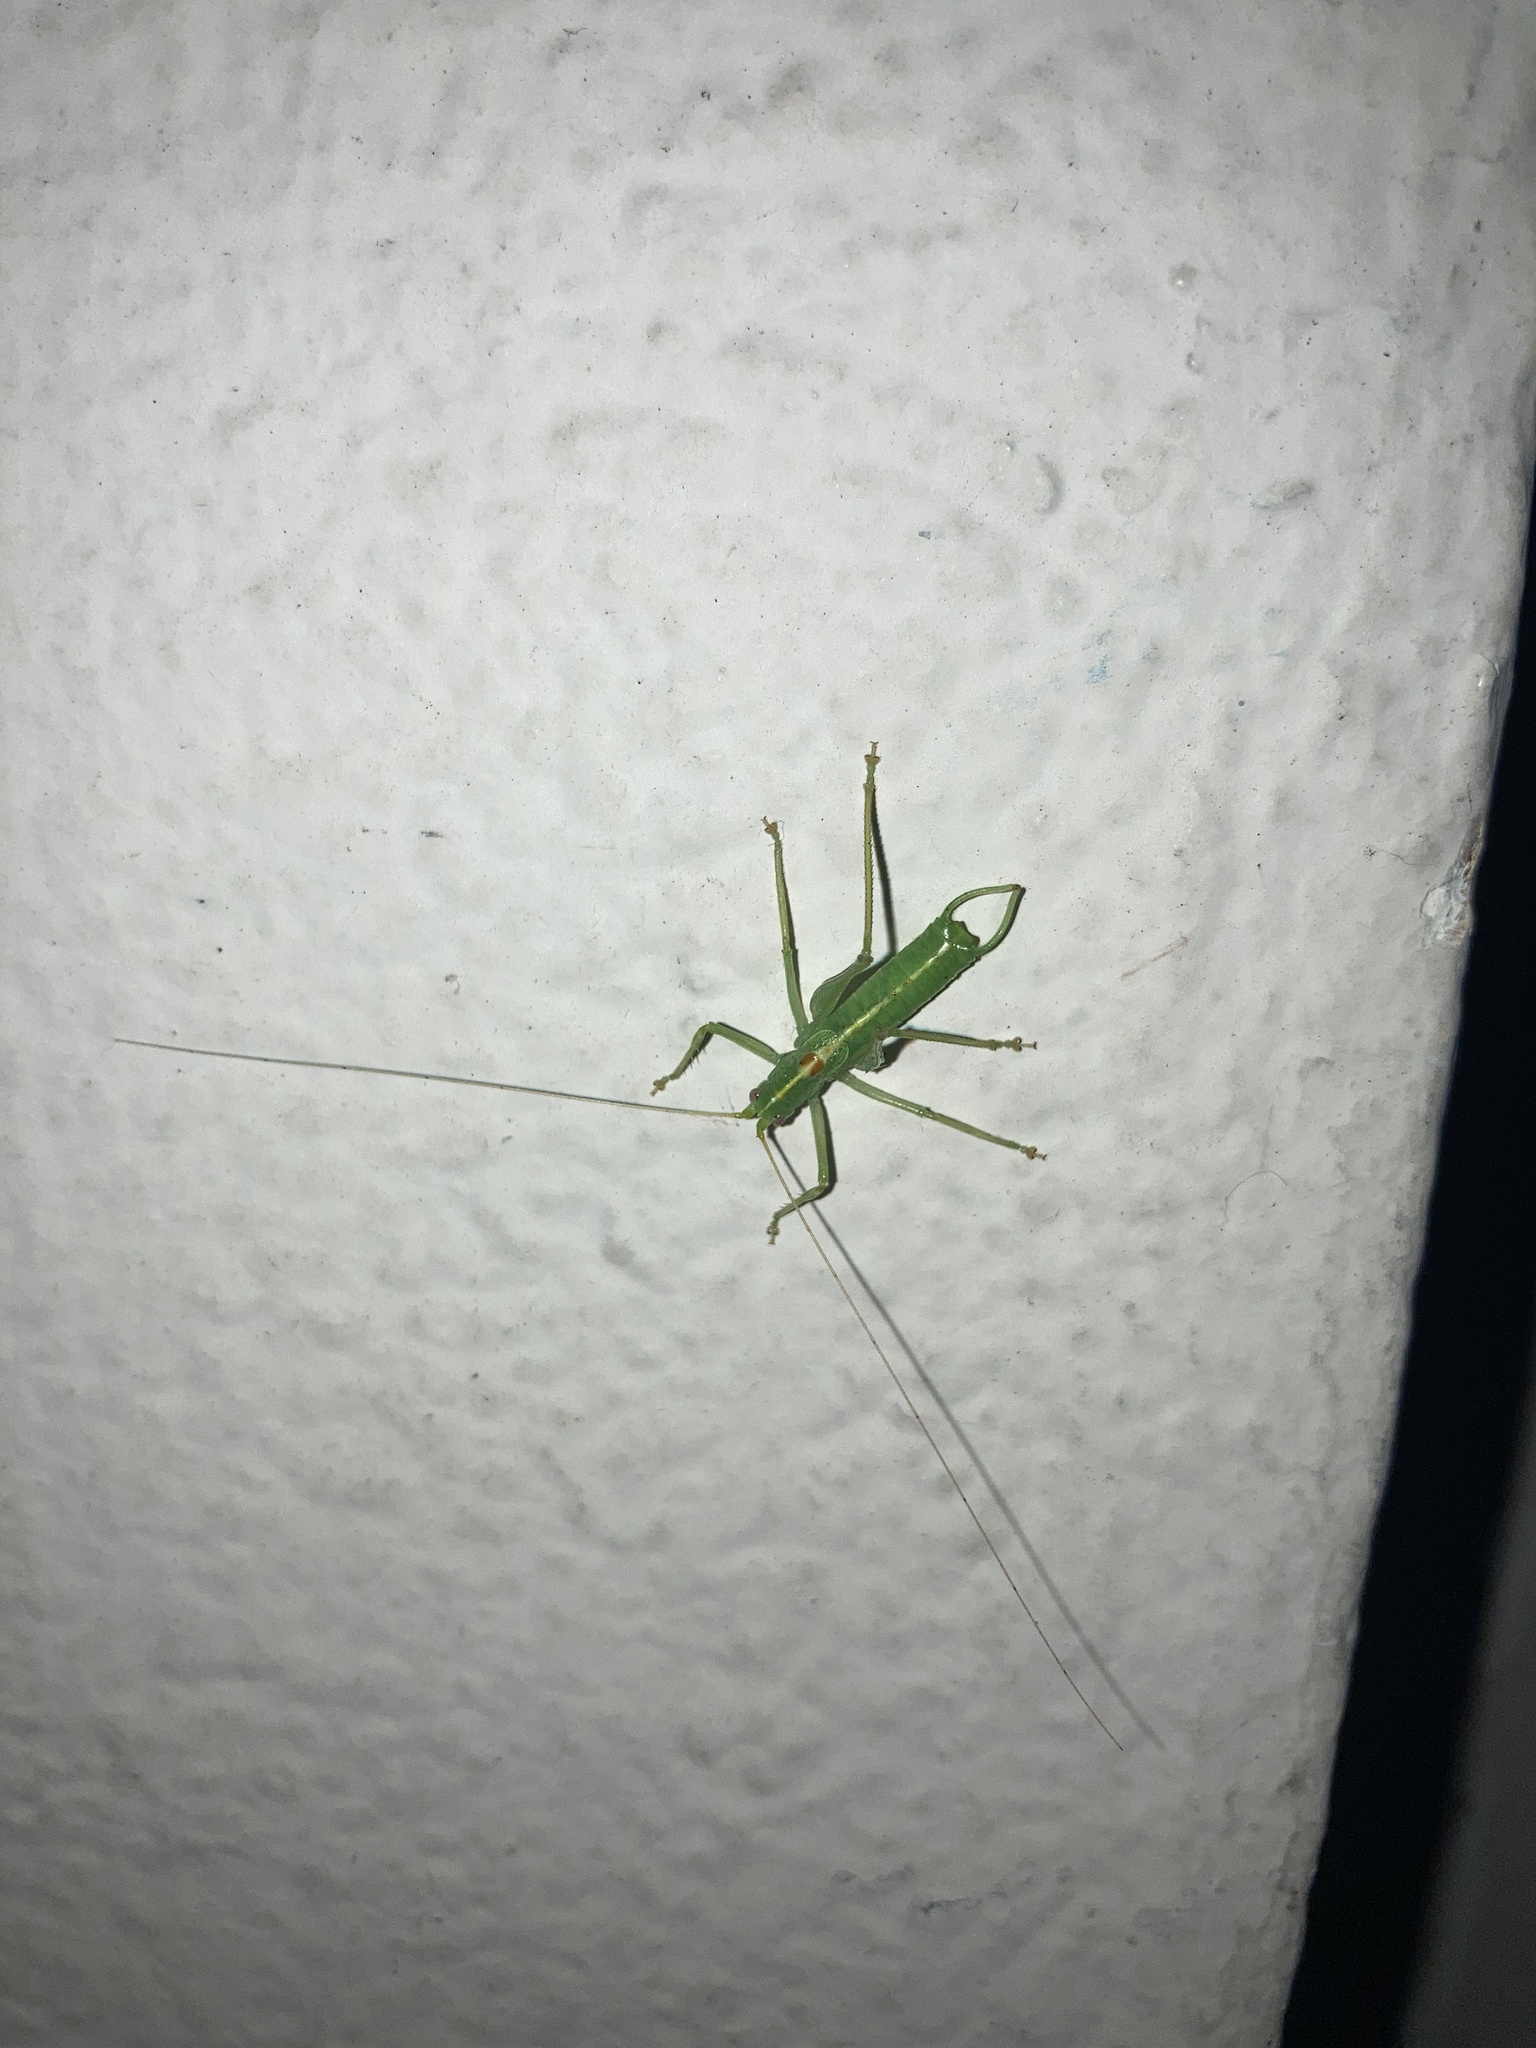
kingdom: Animalia
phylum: Arthropoda
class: Insecta
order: Orthoptera
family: Tettigoniidae
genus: Meconema
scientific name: Meconema meridionale
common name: Southern oak bush-cricket
